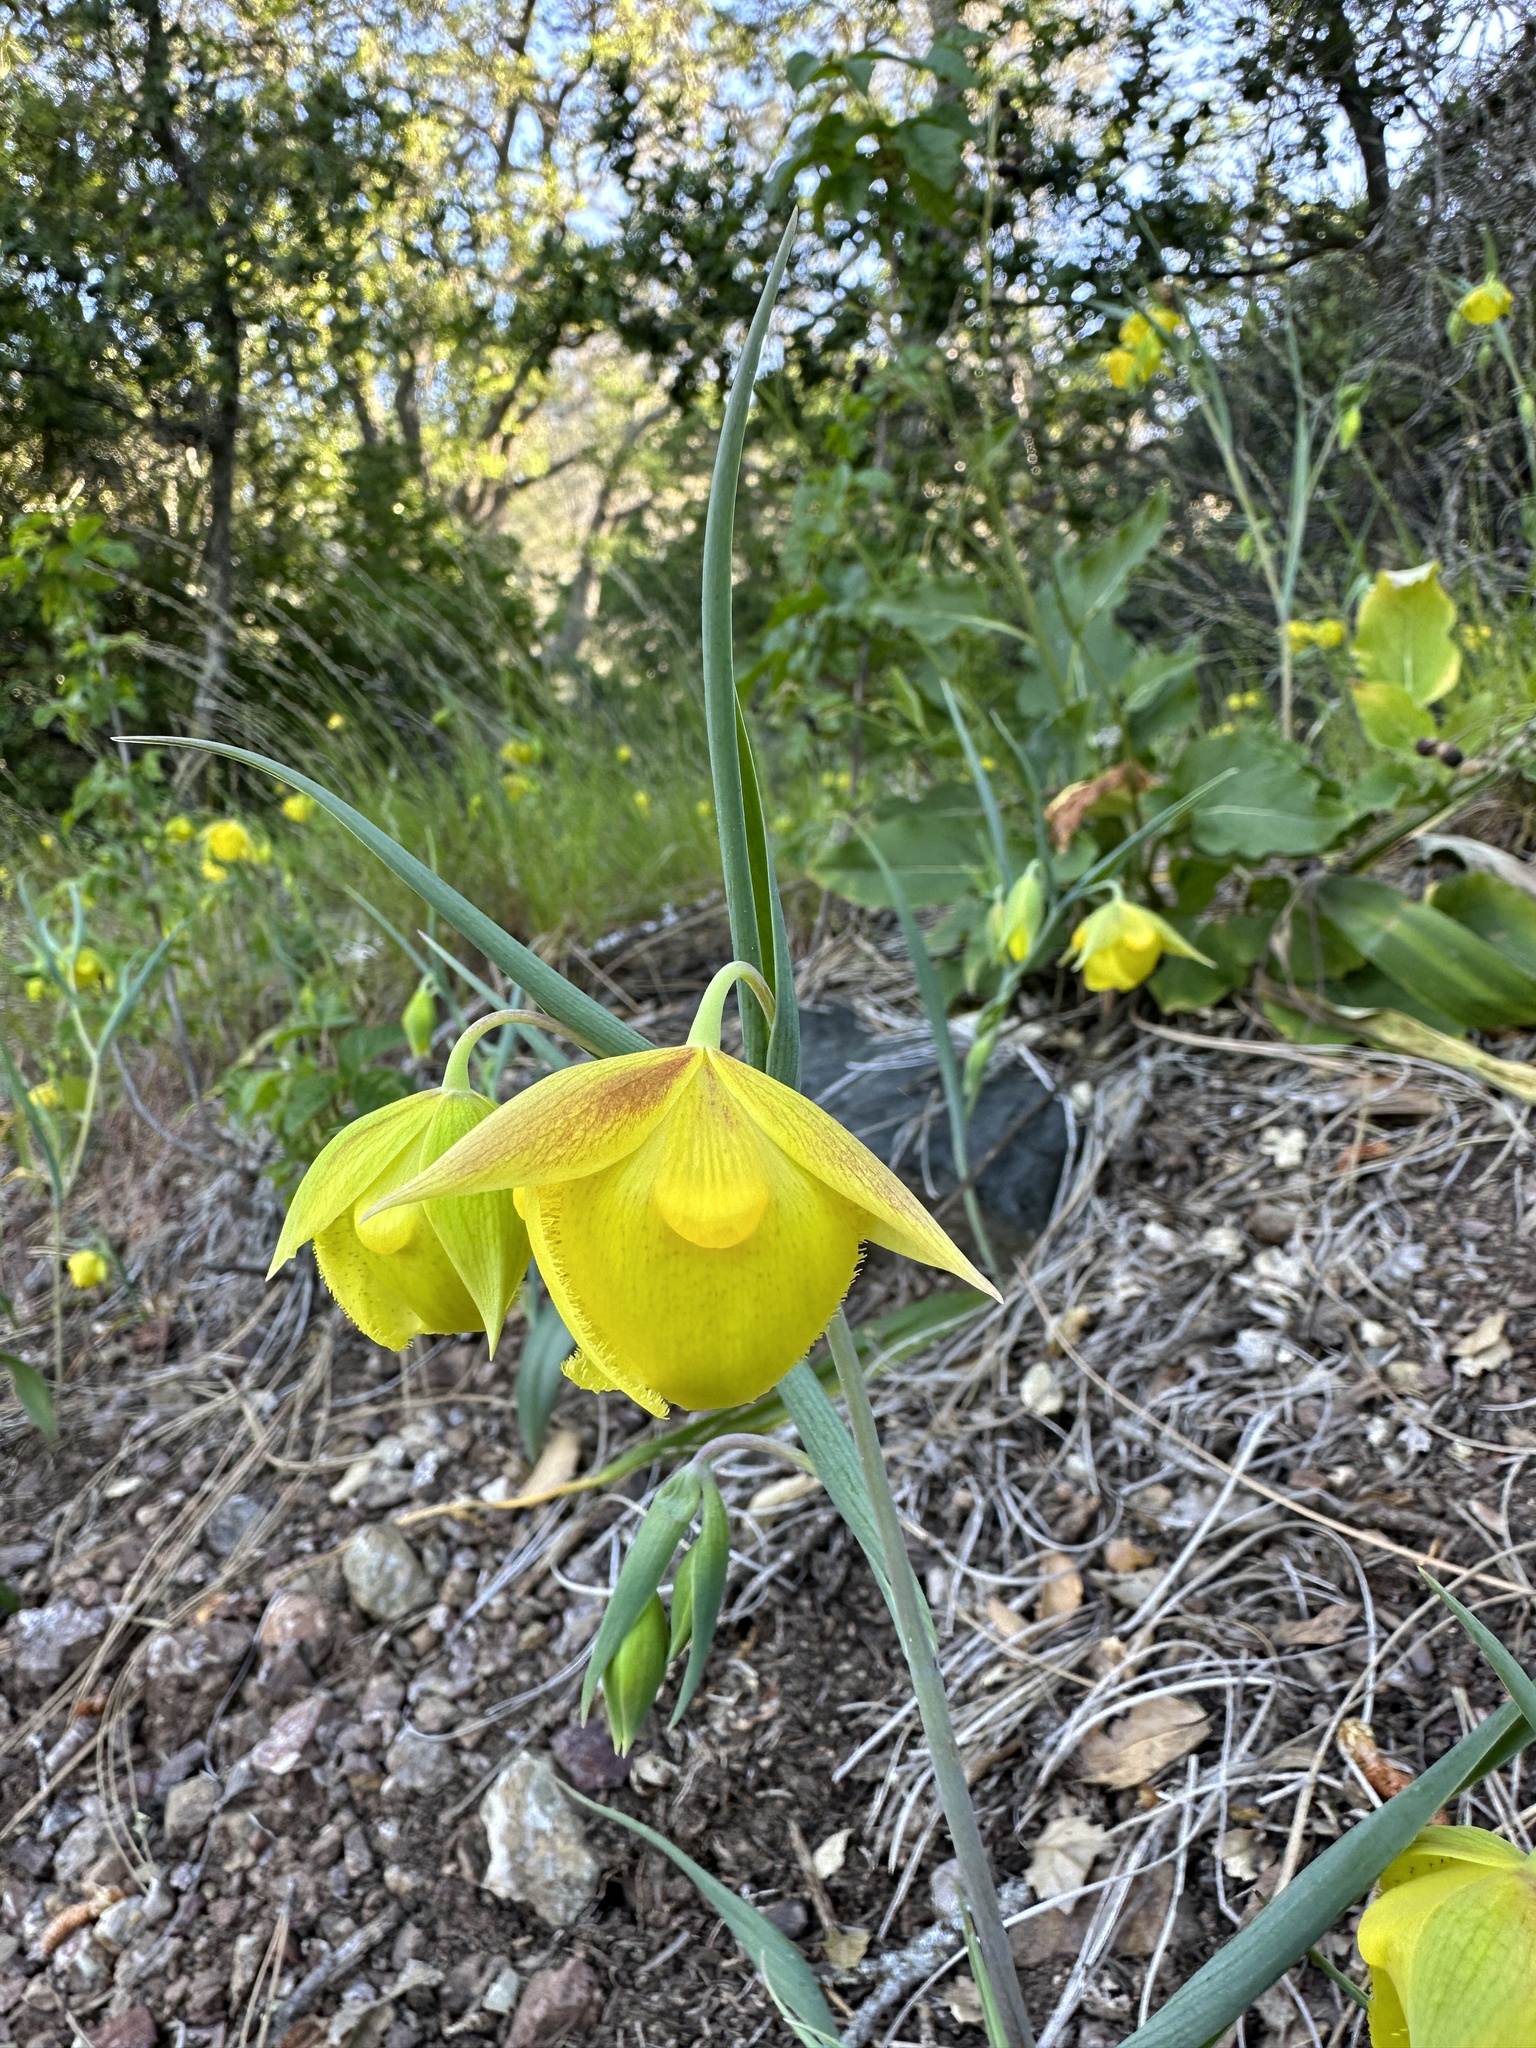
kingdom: Plantae
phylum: Tracheophyta
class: Liliopsida
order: Liliales
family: Liliaceae
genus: Calochortus
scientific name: Calochortus pulchellus
